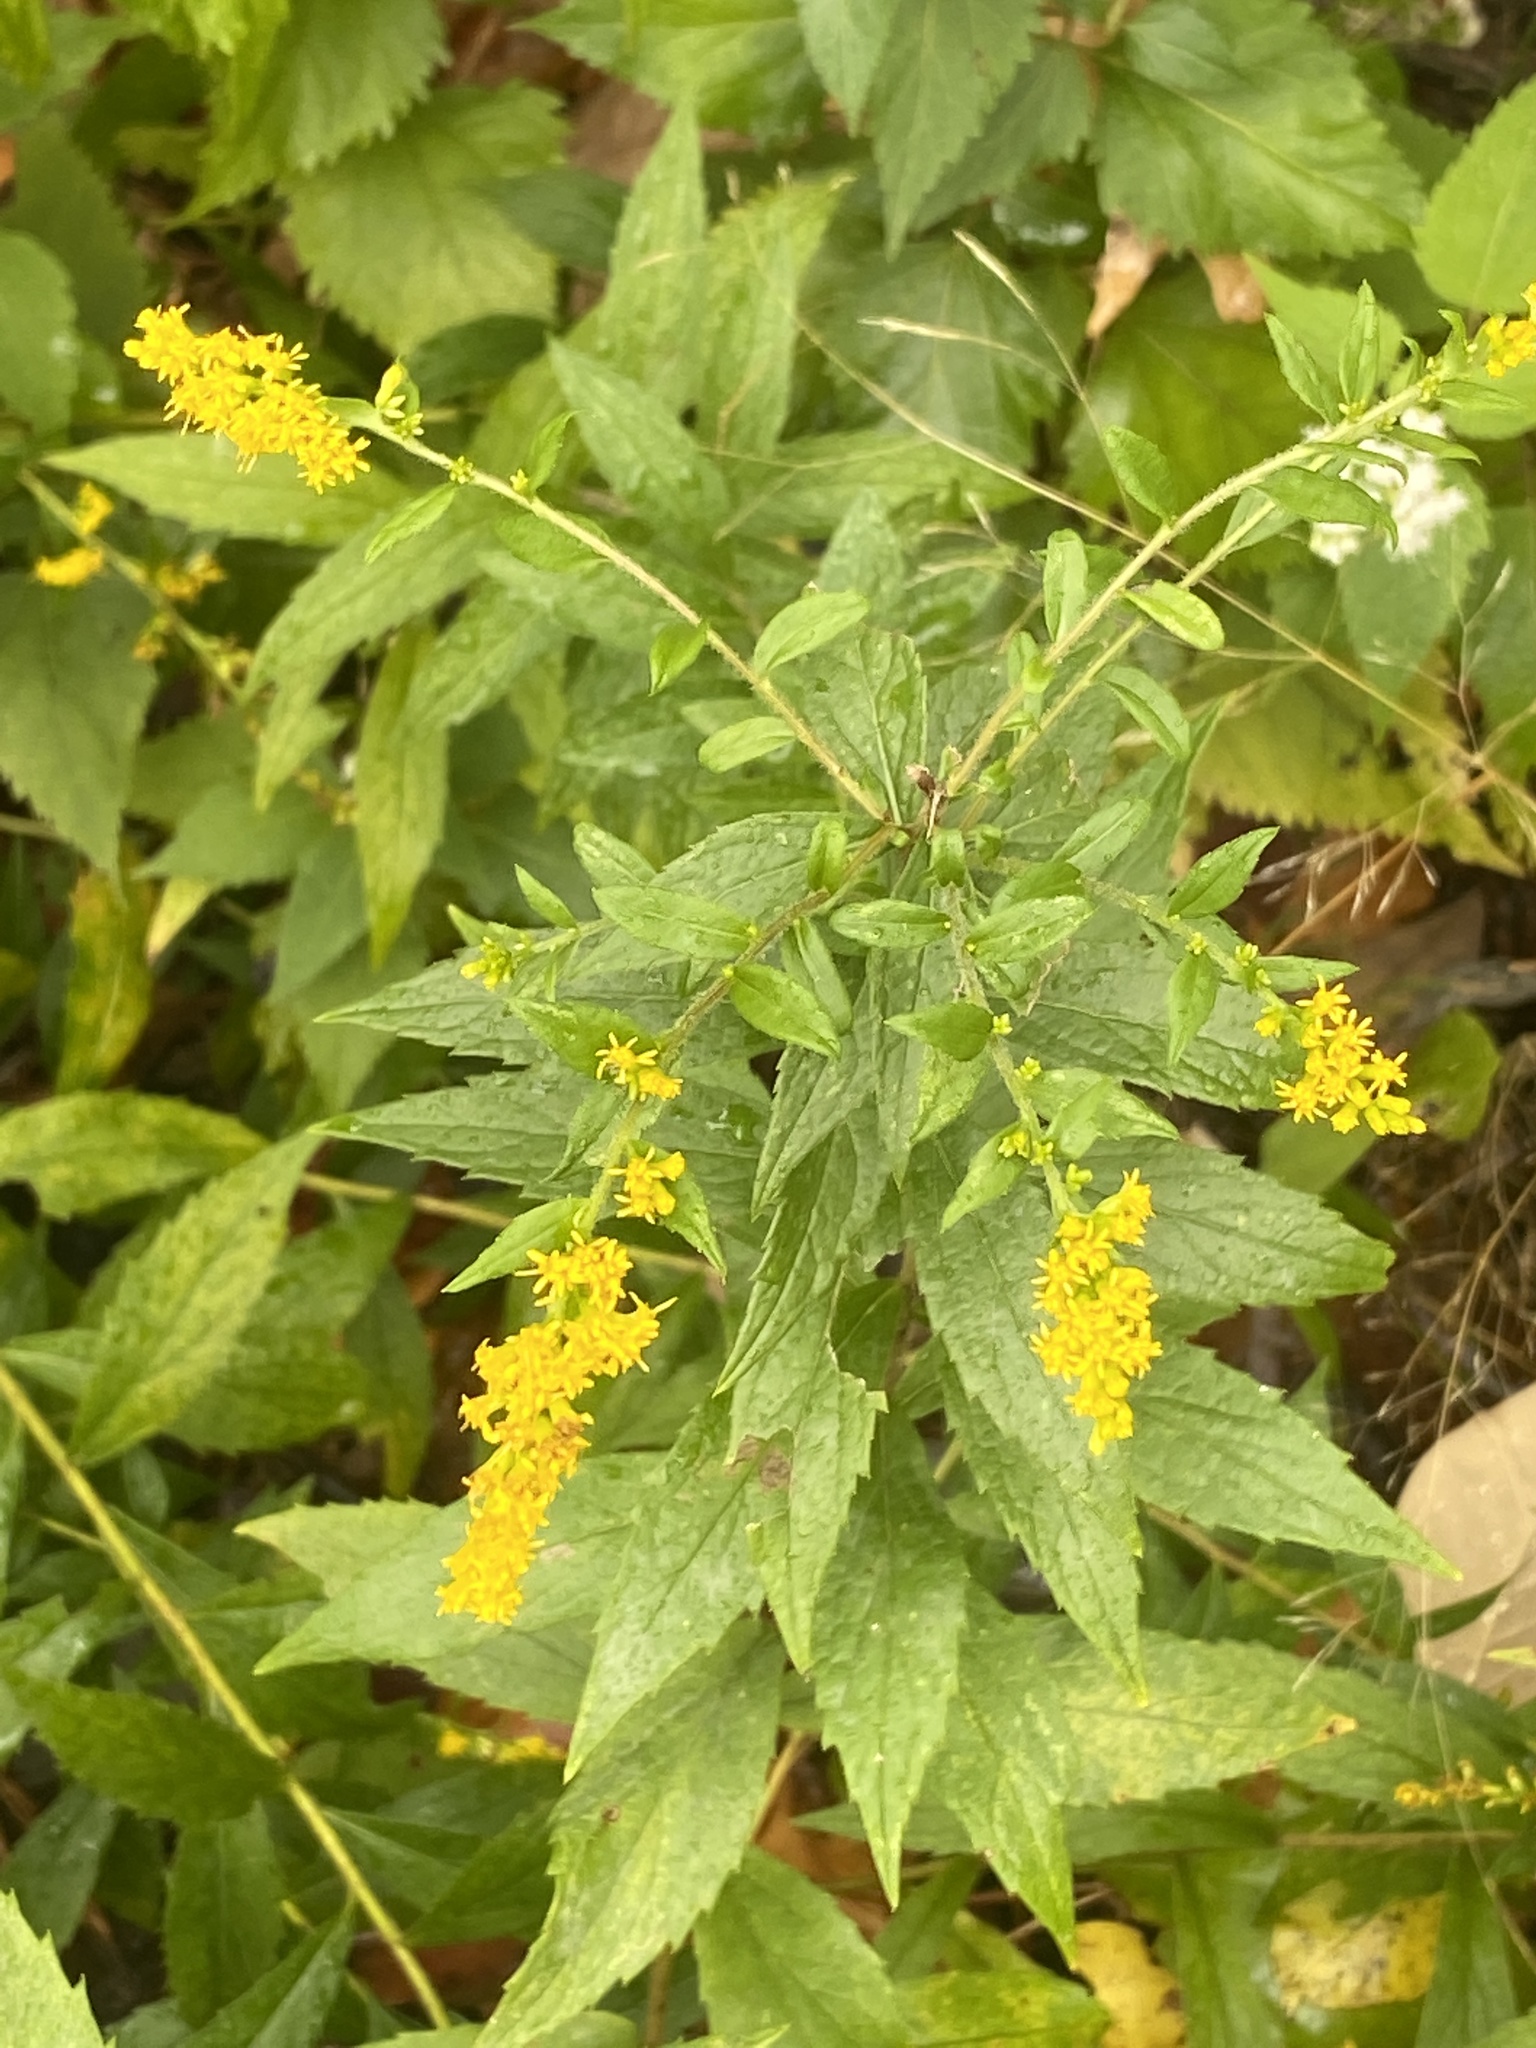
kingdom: Plantae
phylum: Tracheophyta
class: Magnoliopsida
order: Asterales
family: Asteraceae
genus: Solidago
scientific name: Solidago rugosa
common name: Rough-stemmed goldenrod
